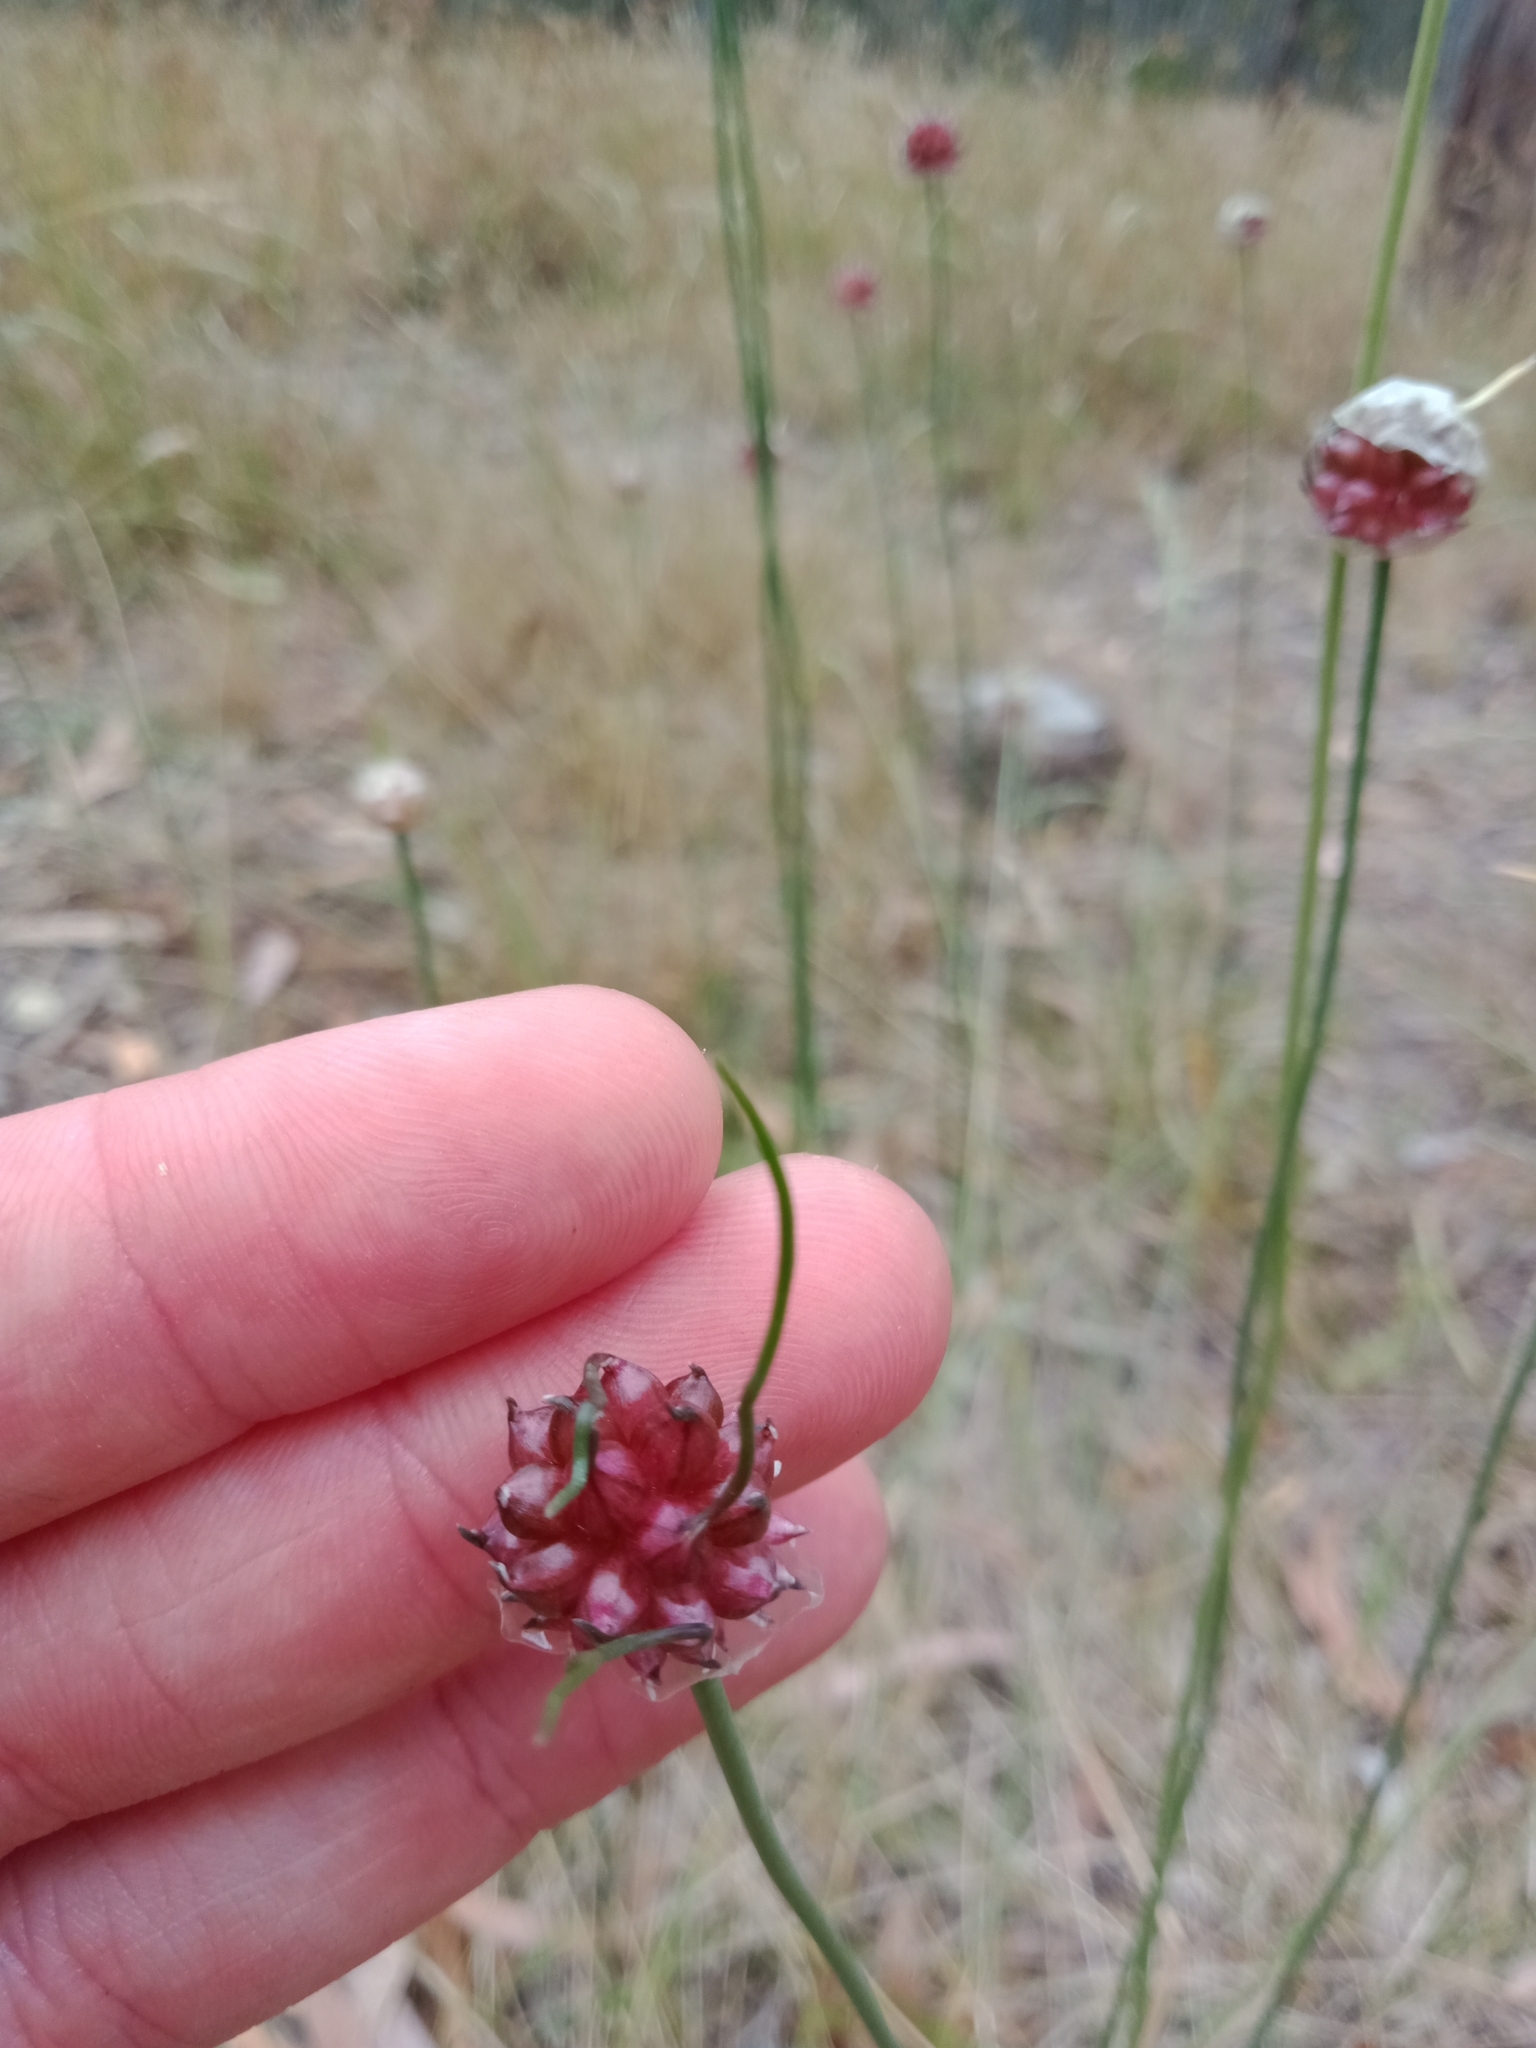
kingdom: Plantae
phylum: Tracheophyta
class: Liliopsida
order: Asparagales
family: Amaryllidaceae
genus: Allium
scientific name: Allium vineale
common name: Crow garlic
